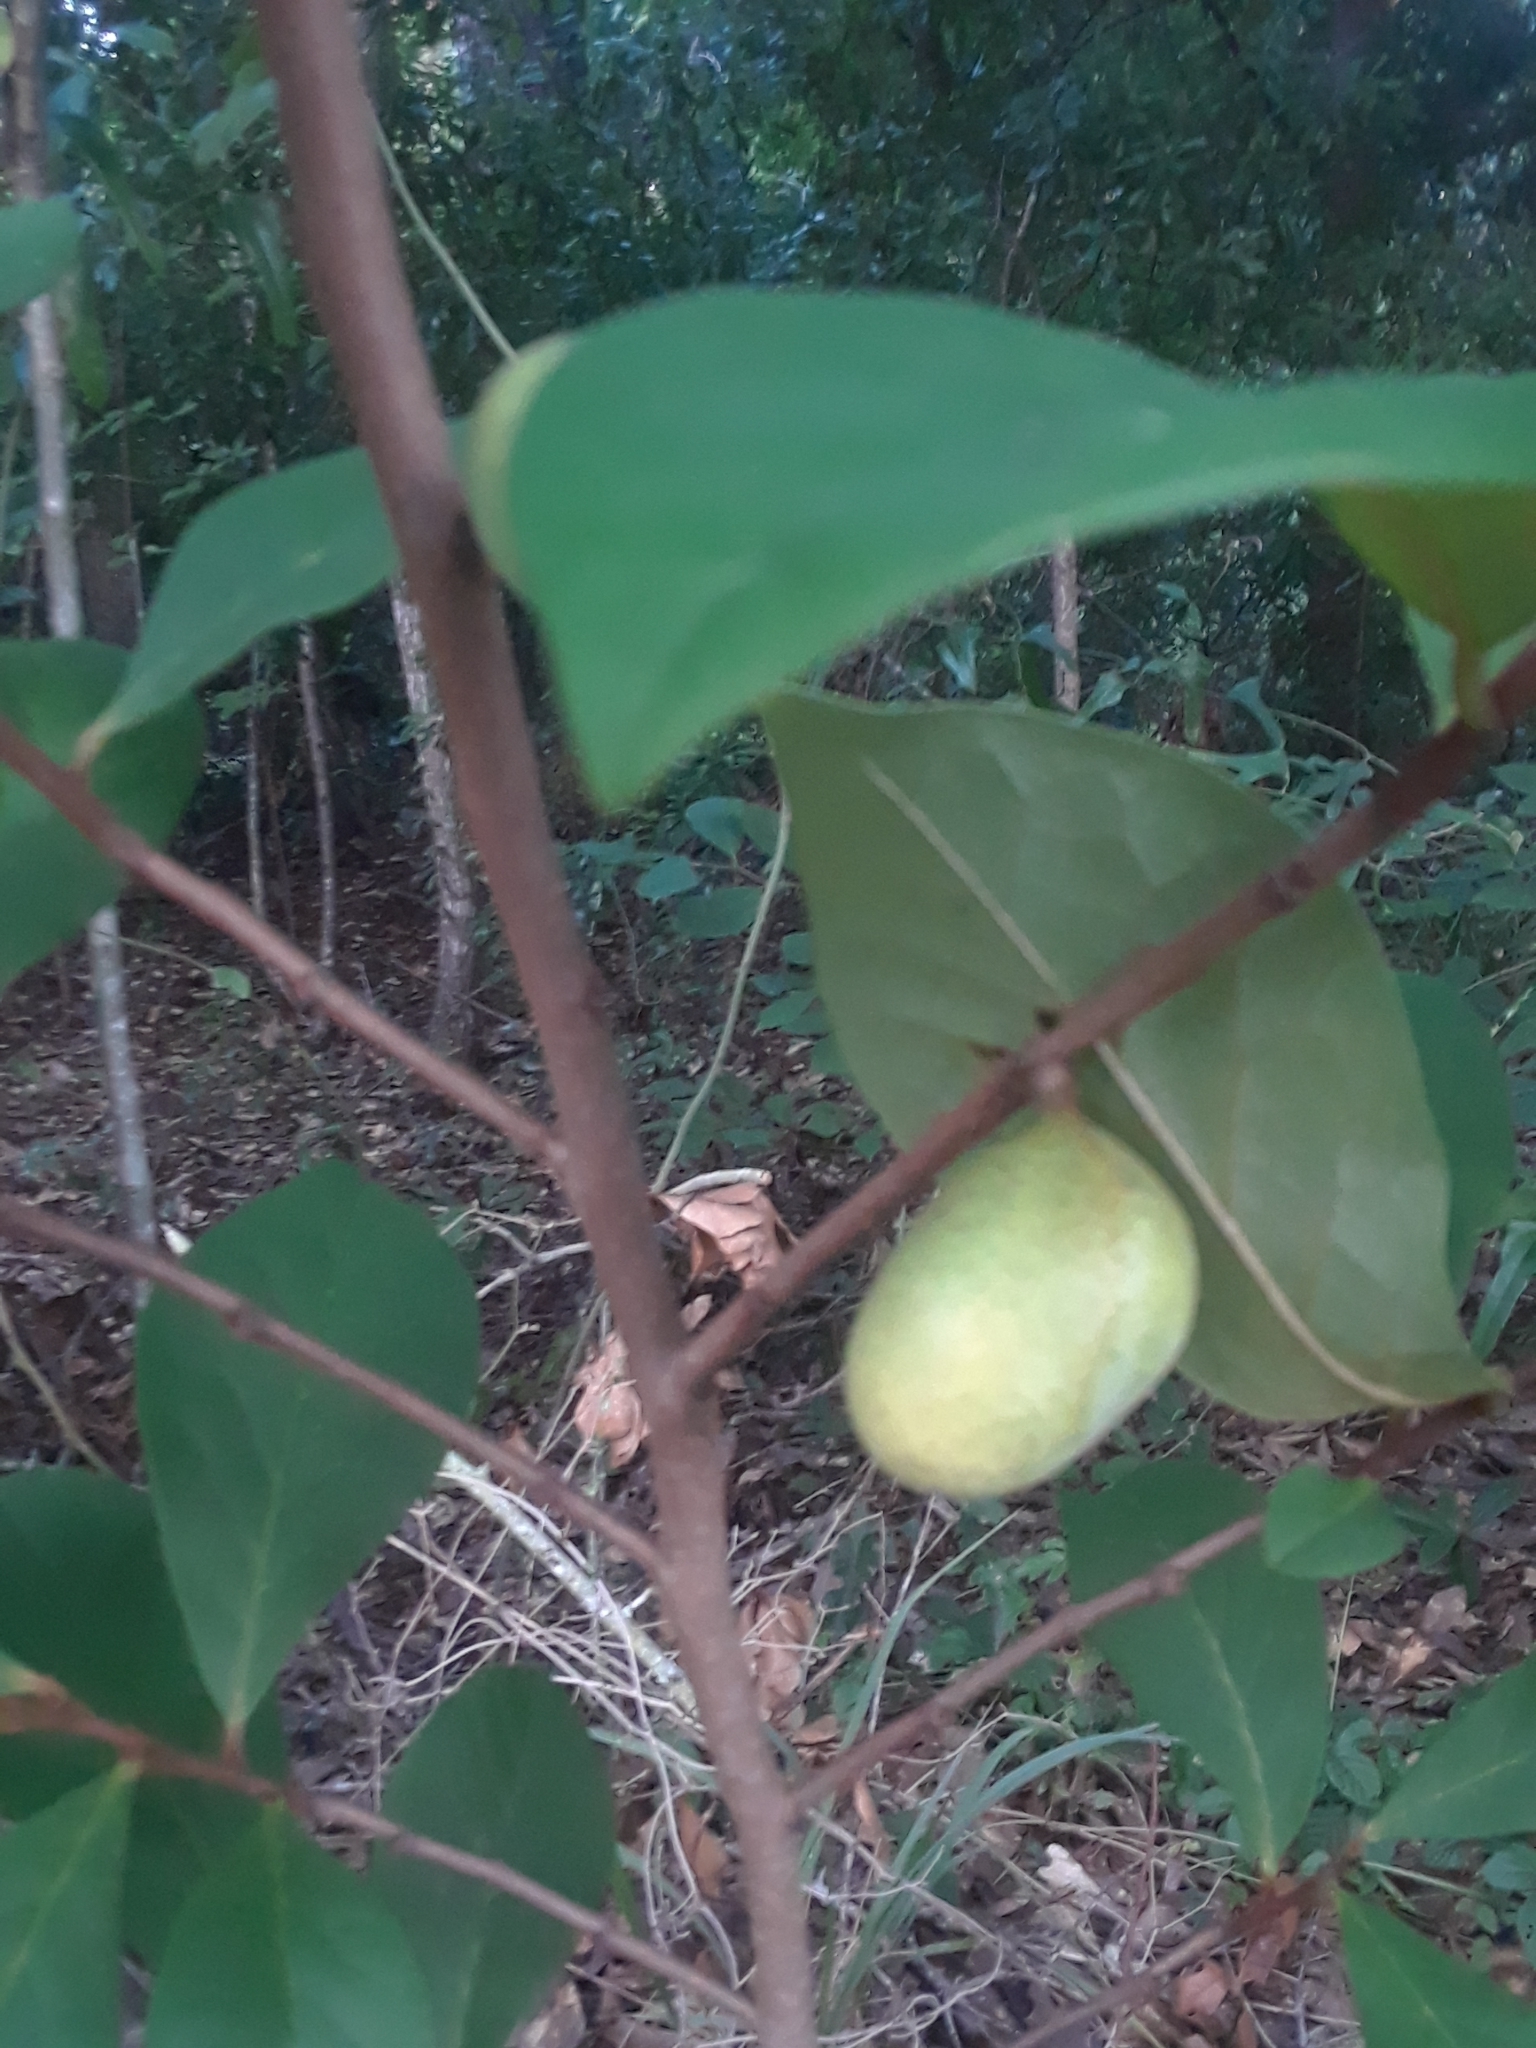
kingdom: Plantae
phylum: Tracheophyta
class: Magnoliopsida
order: Magnoliales
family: Annonaceae
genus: Asimina
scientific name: Asimina parviflora
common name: Dwarf pawpaw
